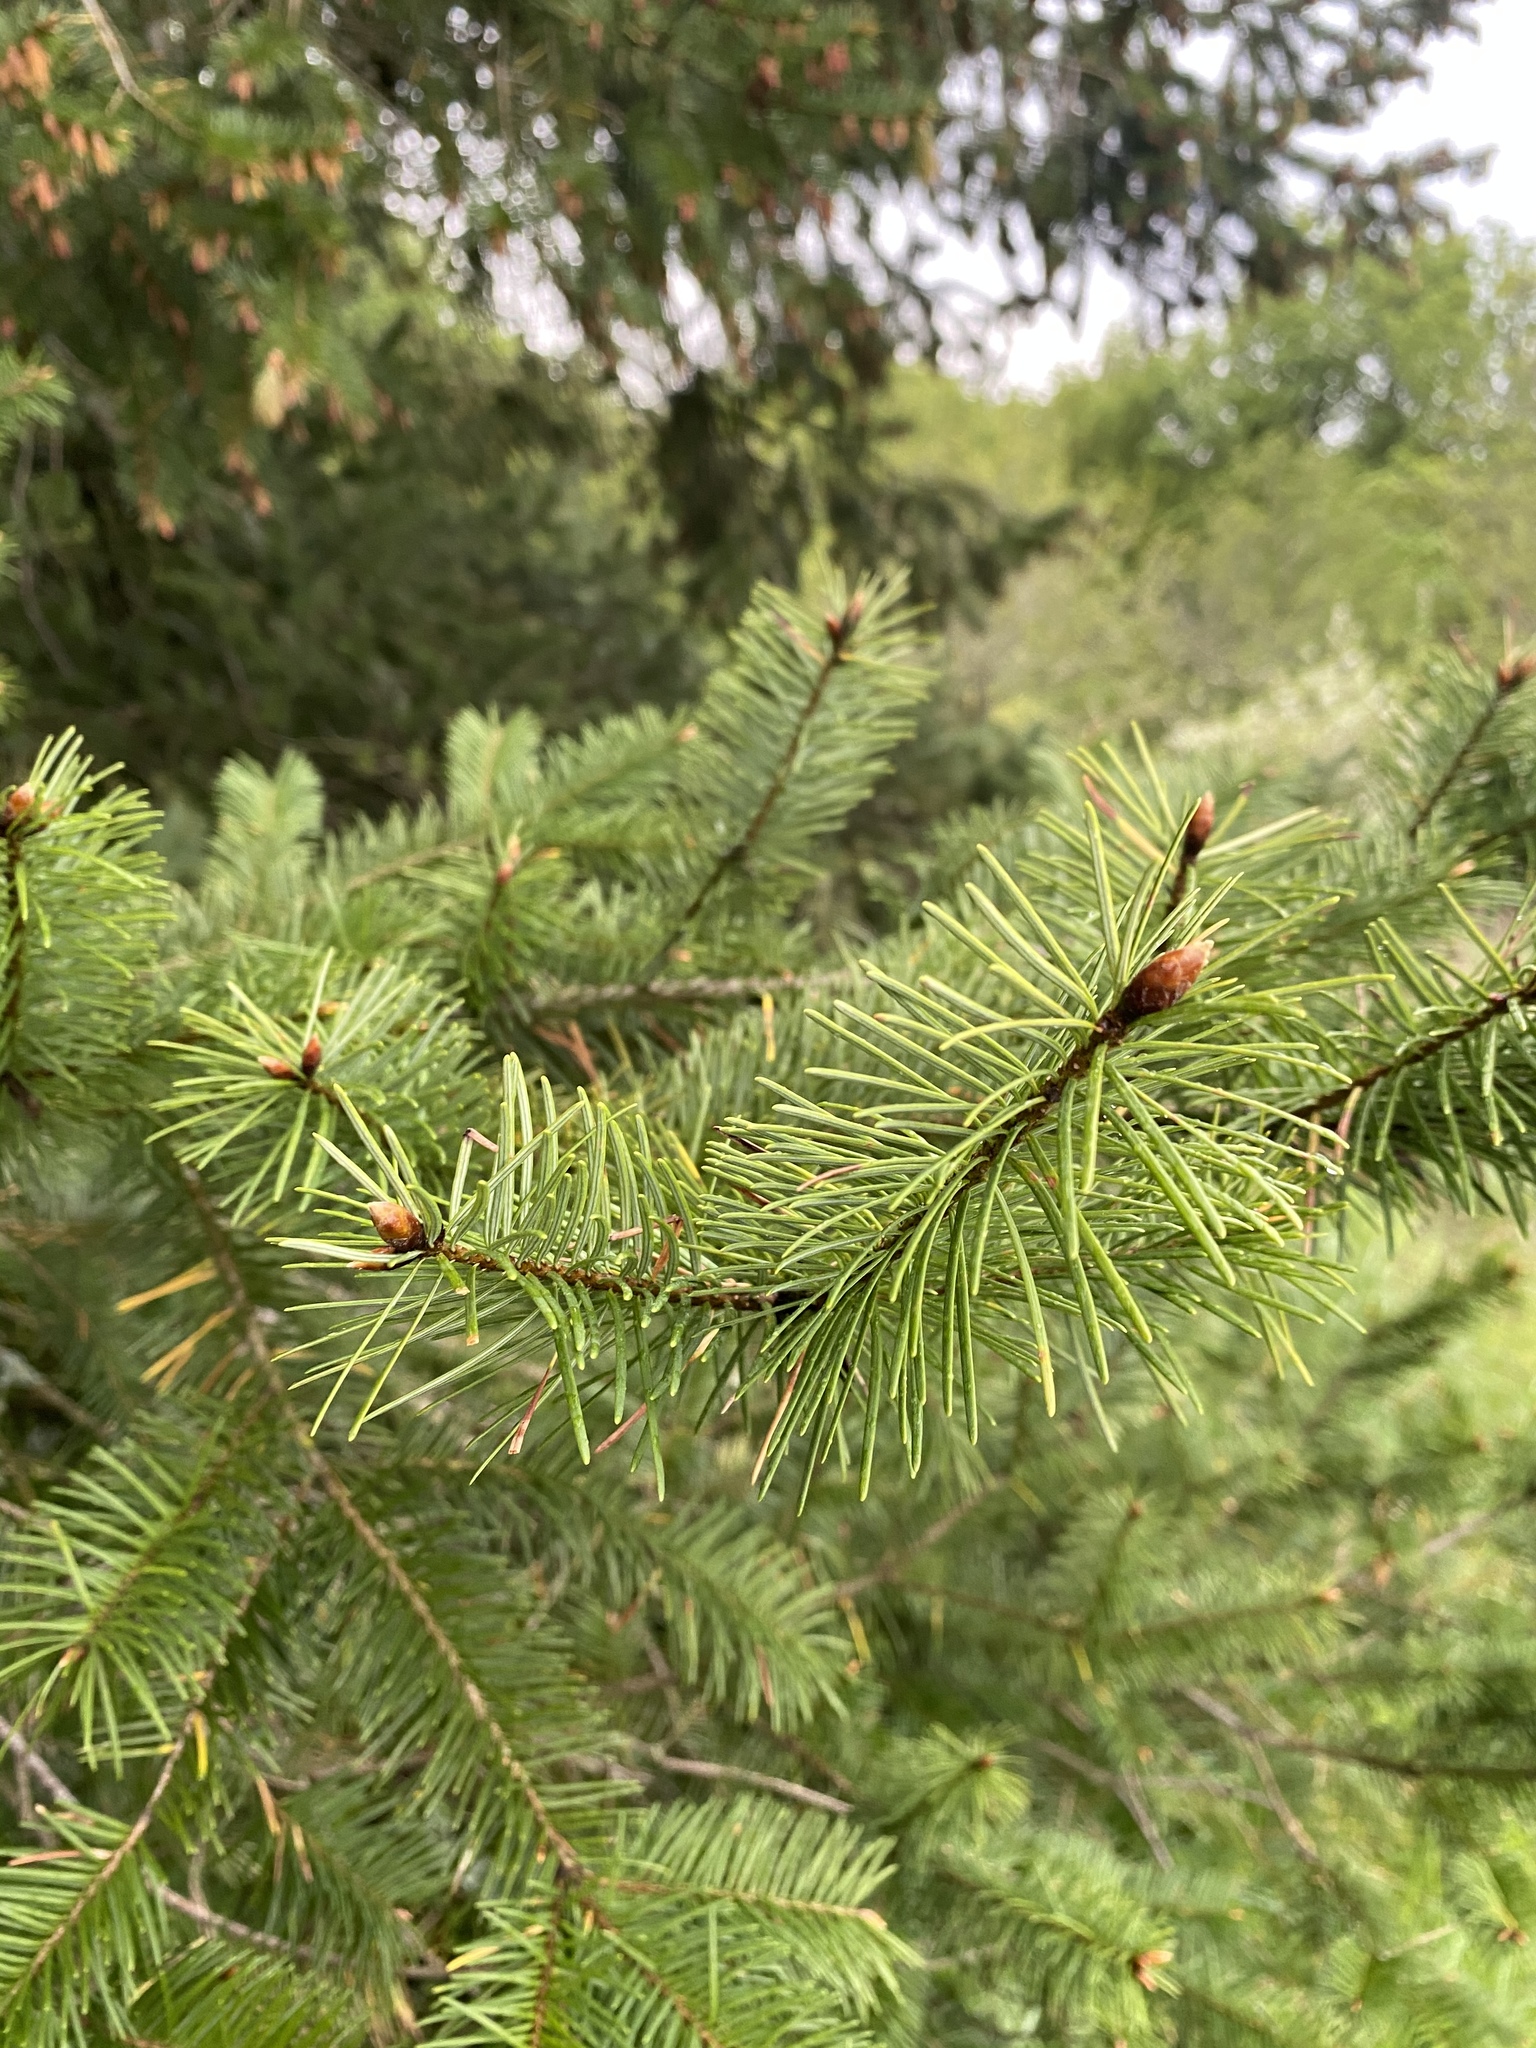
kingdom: Plantae
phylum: Tracheophyta
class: Pinopsida
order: Pinales
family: Pinaceae
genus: Pseudotsuga
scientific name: Pseudotsuga menziesii
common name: Douglas fir
